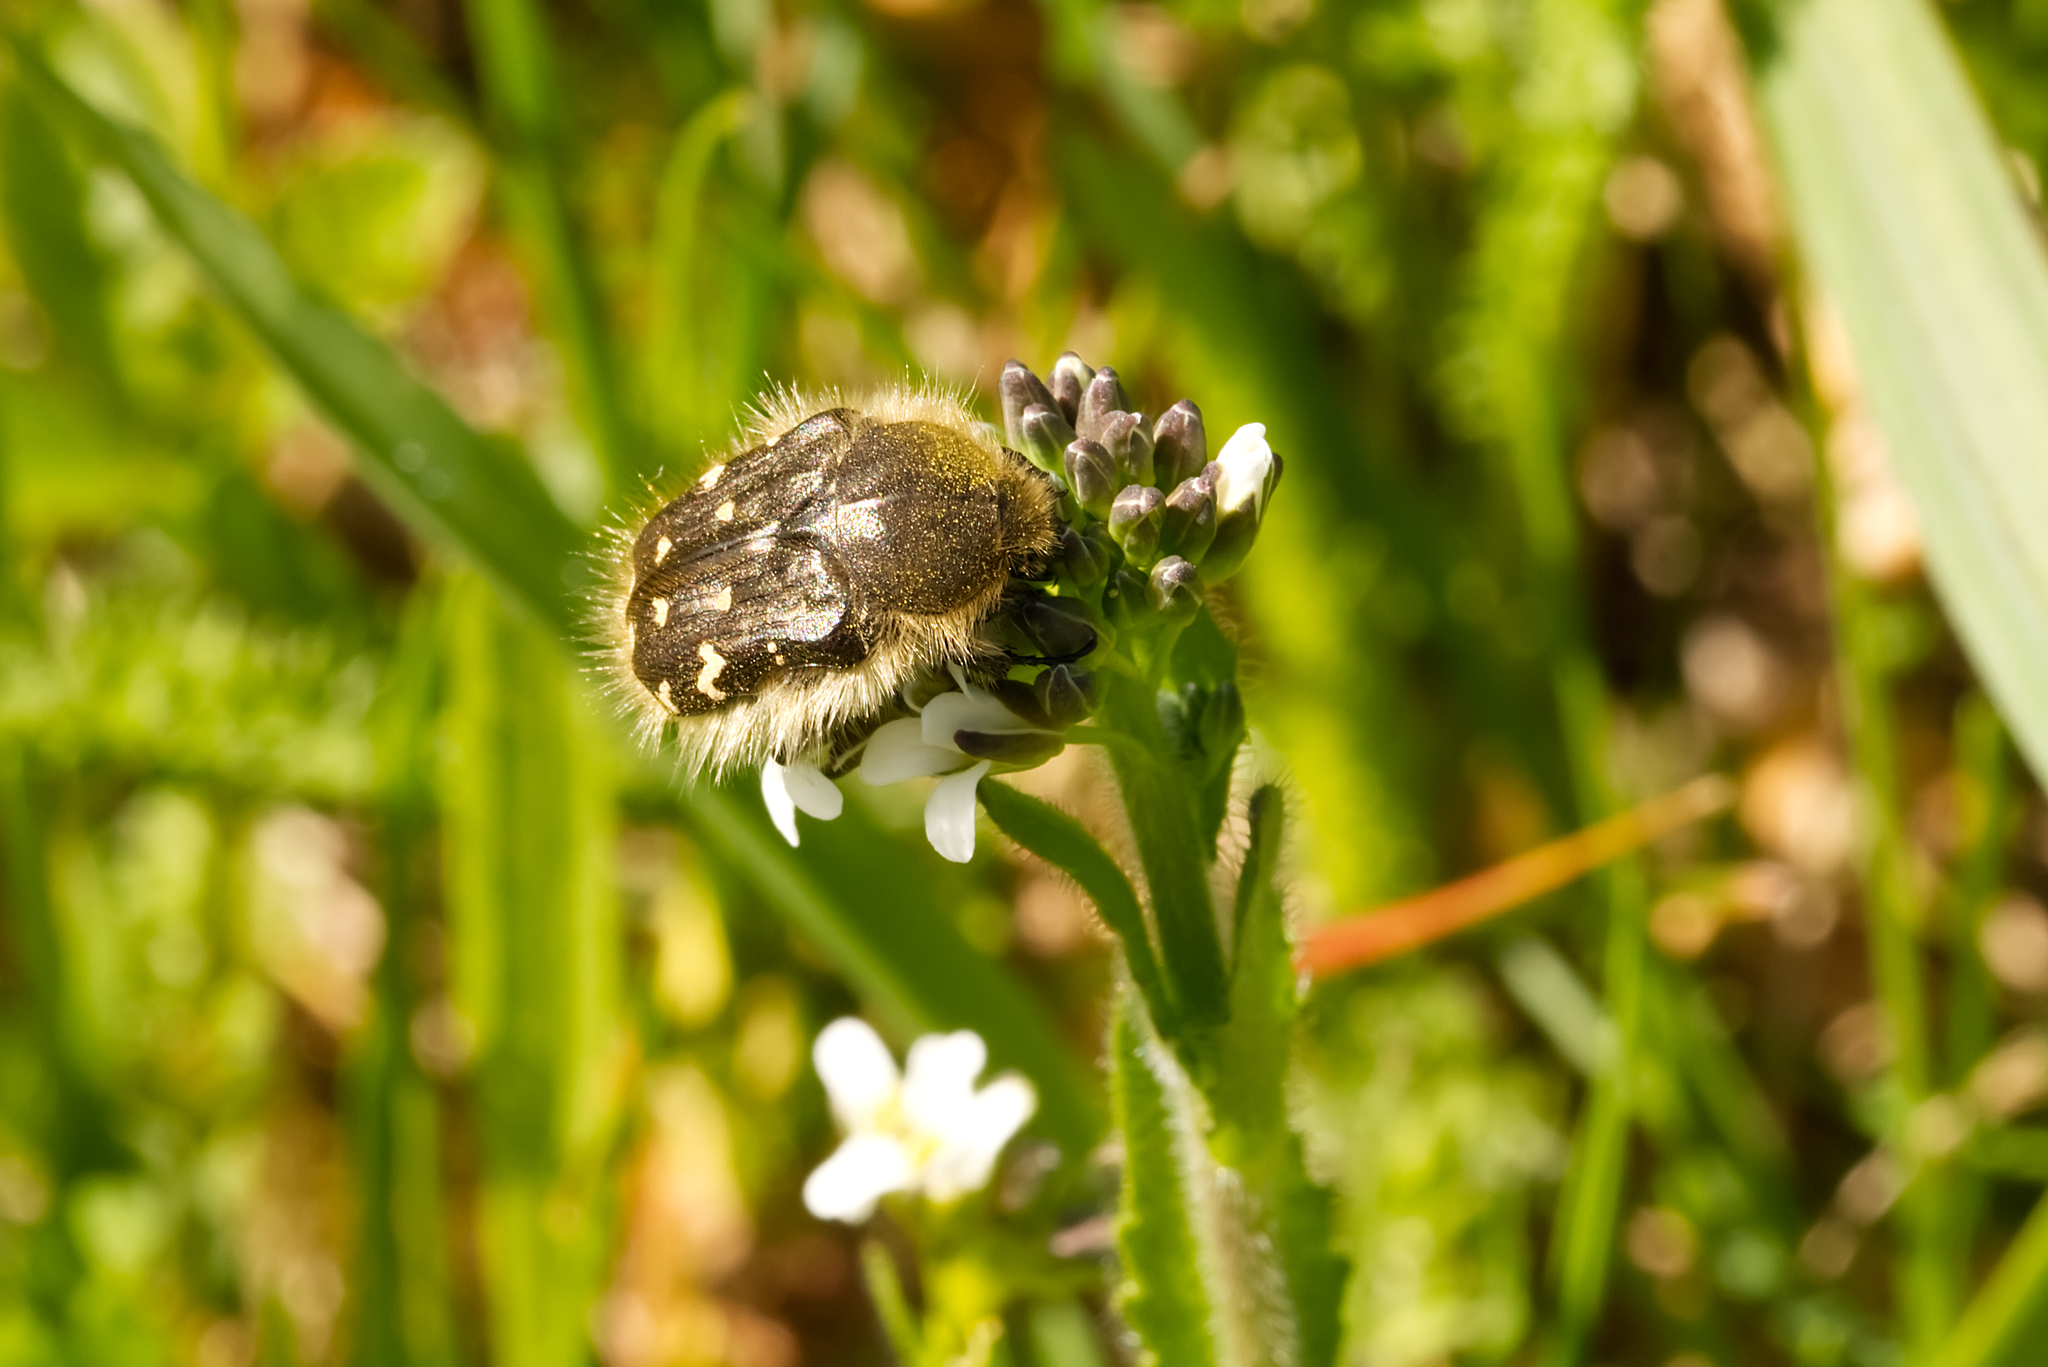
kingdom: Animalia
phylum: Arthropoda
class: Insecta
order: Coleoptera
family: Scarabaeidae
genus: Tropinota
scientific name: Tropinota hirta
